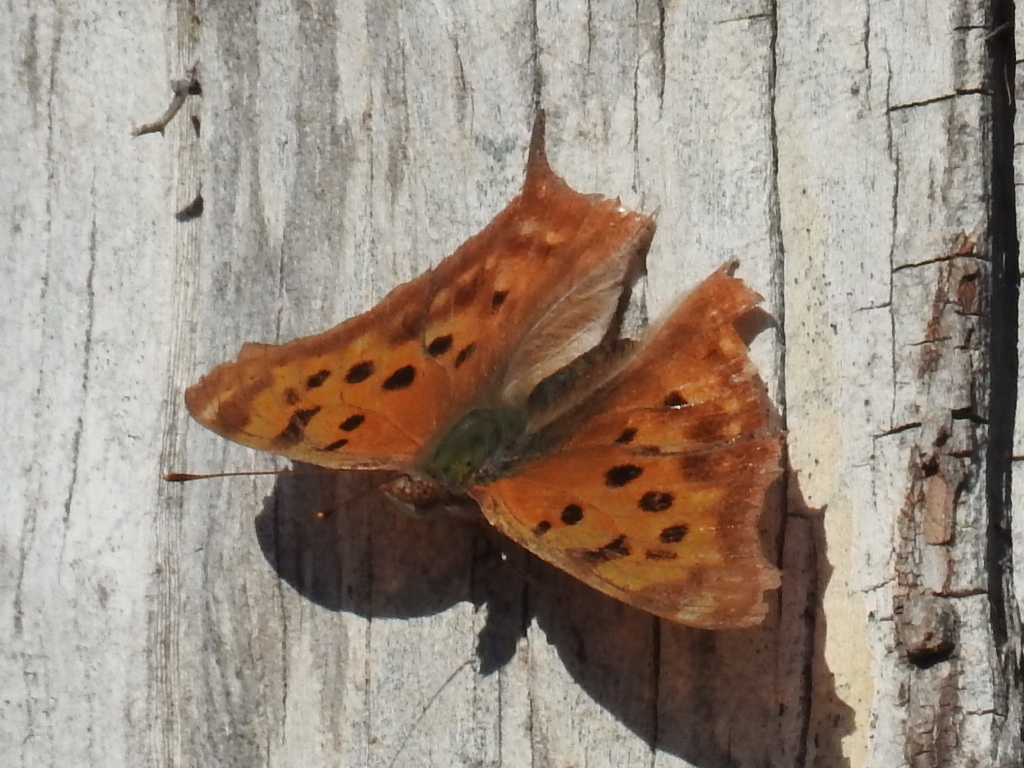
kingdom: Animalia
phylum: Arthropoda
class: Insecta
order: Lepidoptera
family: Nymphalidae
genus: Polygonia
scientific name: Polygonia interrogationis
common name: Question mark
